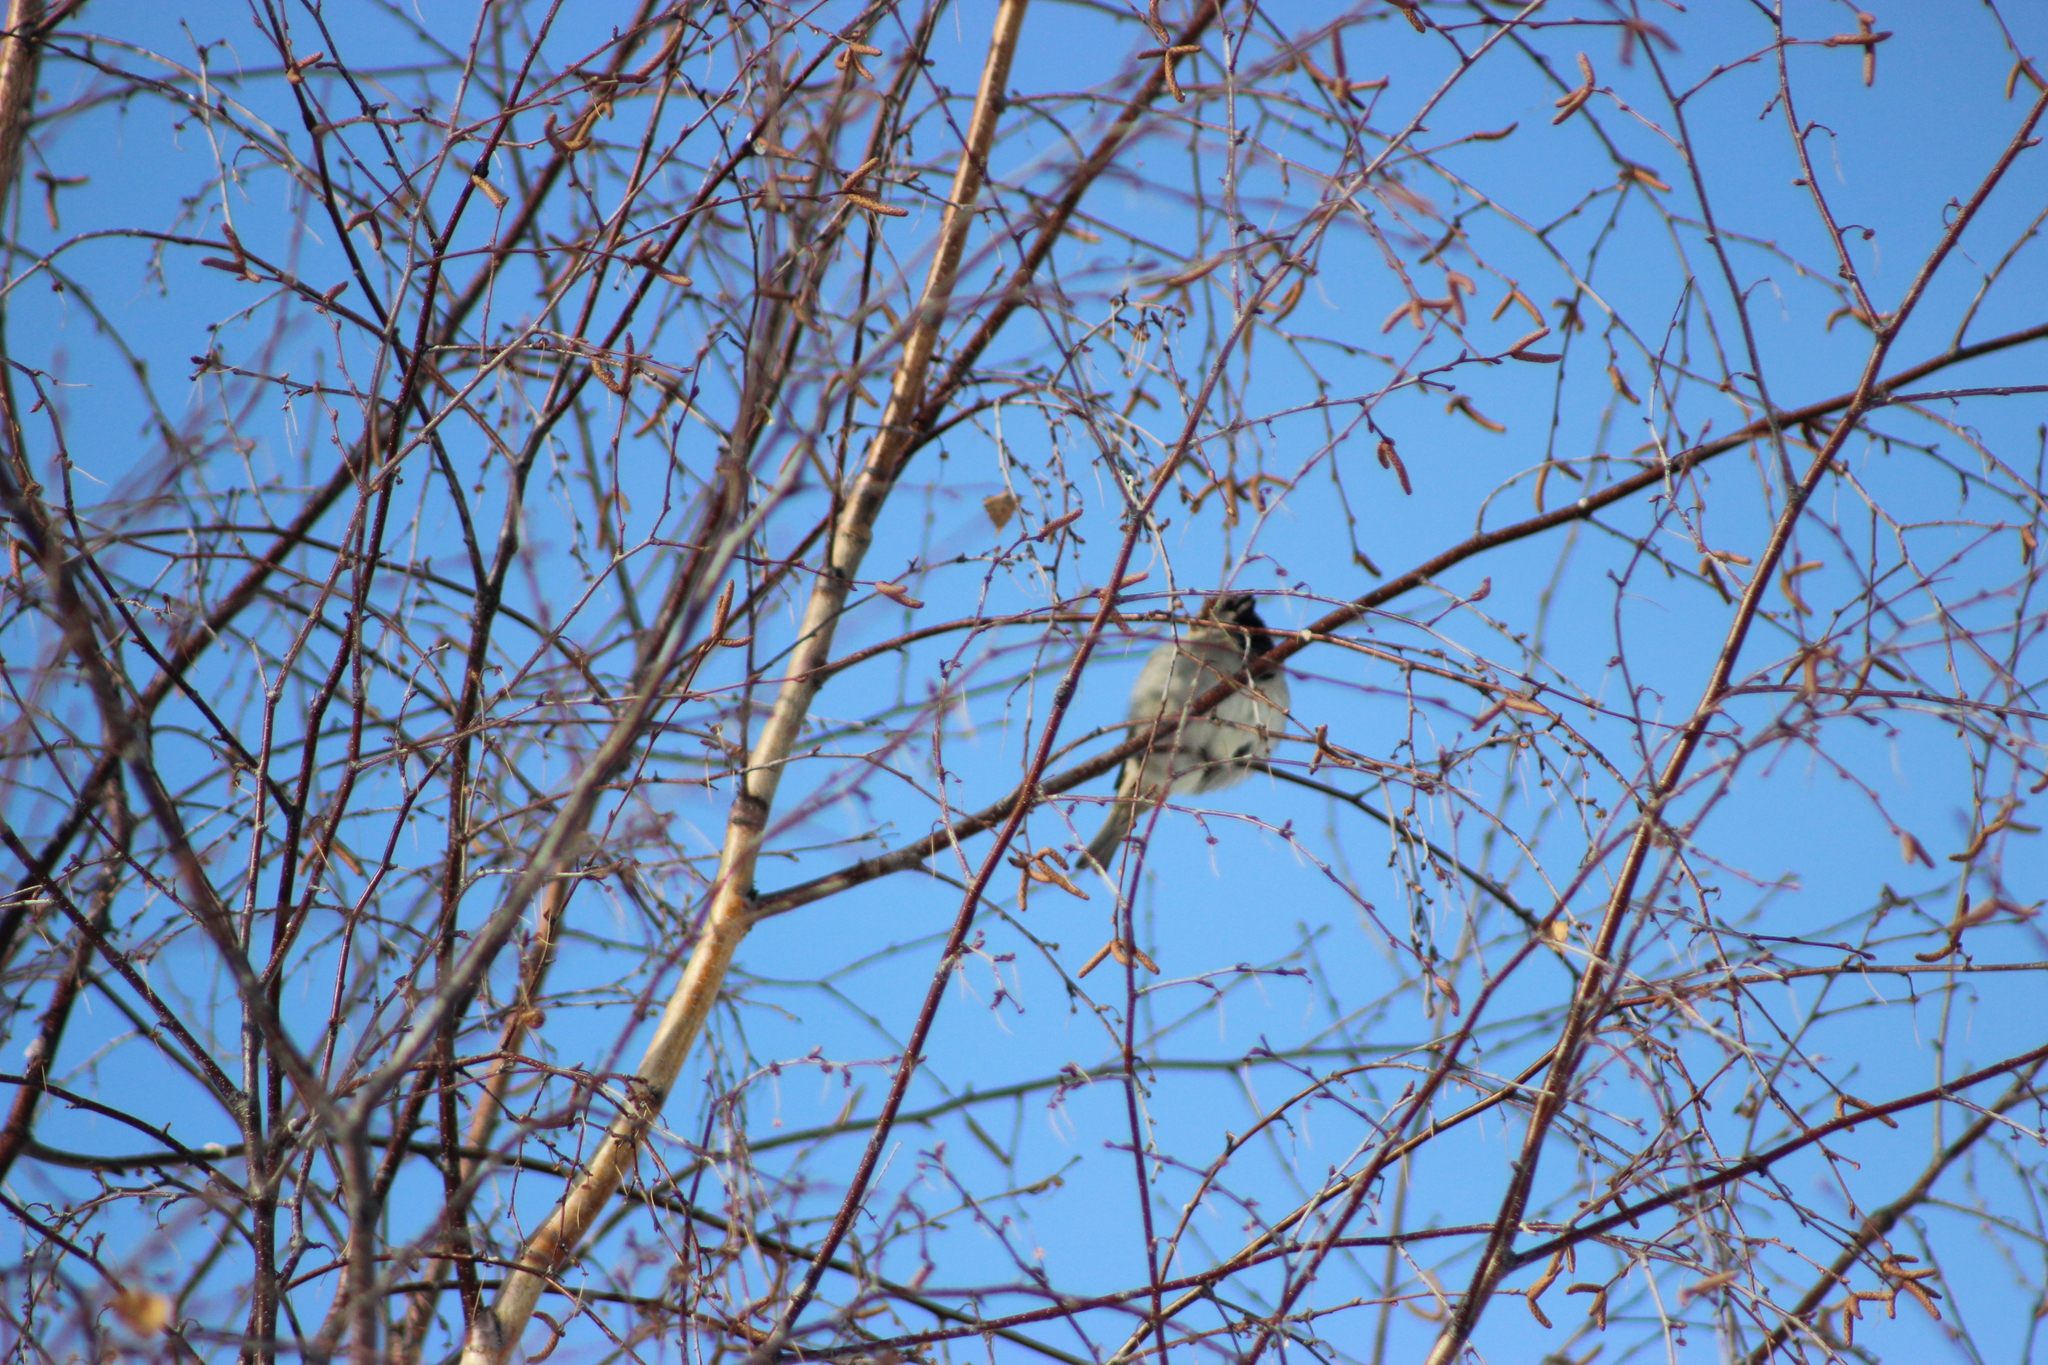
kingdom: Animalia
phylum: Chordata
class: Aves
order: Passeriformes
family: Passeridae
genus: Passer
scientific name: Passer domesticus
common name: House sparrow
